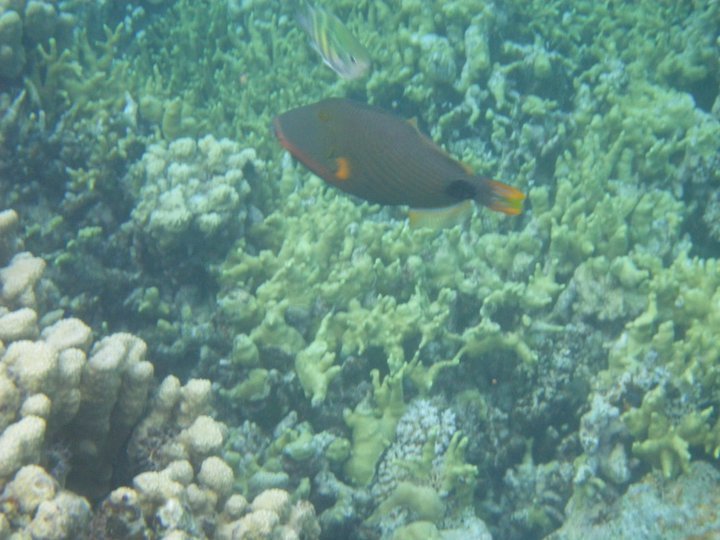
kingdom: Animalia
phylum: Chordata
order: Tetraodontiformes
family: Balistidae
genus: Balistapus
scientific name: Balistapus undulatus
